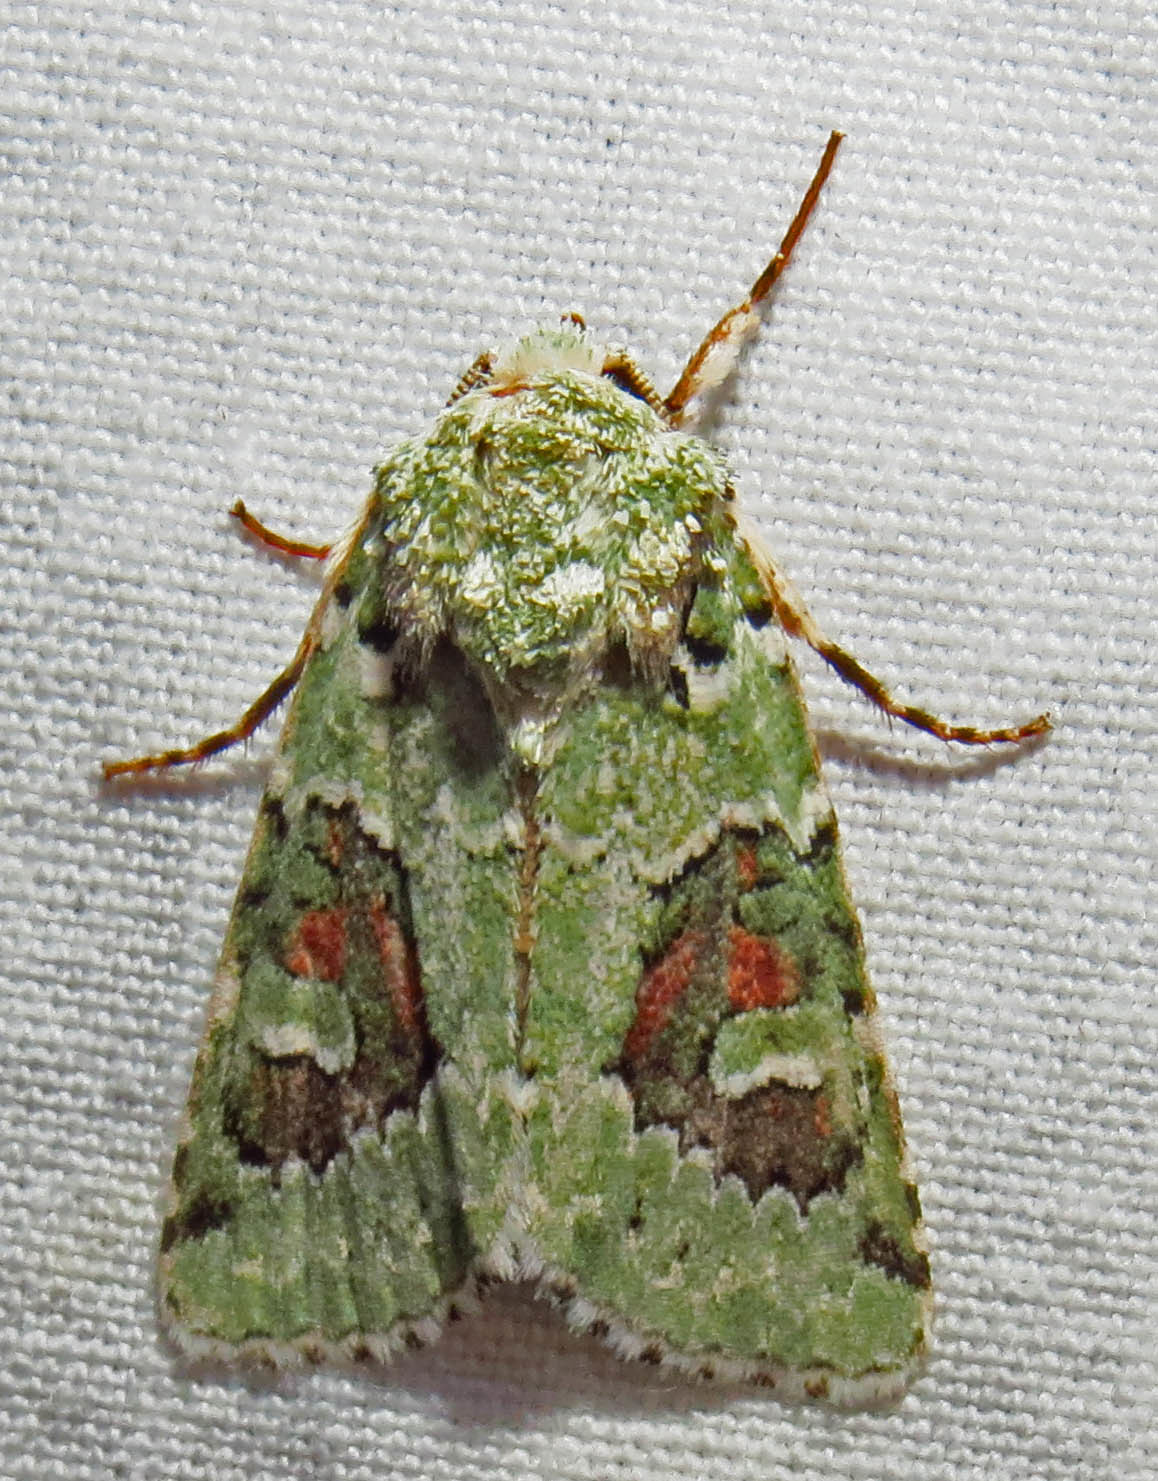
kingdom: Animalia
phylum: Arthropoda
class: Insecta
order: Lepidoptera
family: Noctuidae
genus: Lacinipolia
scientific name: Lacinipolia laudabilis
